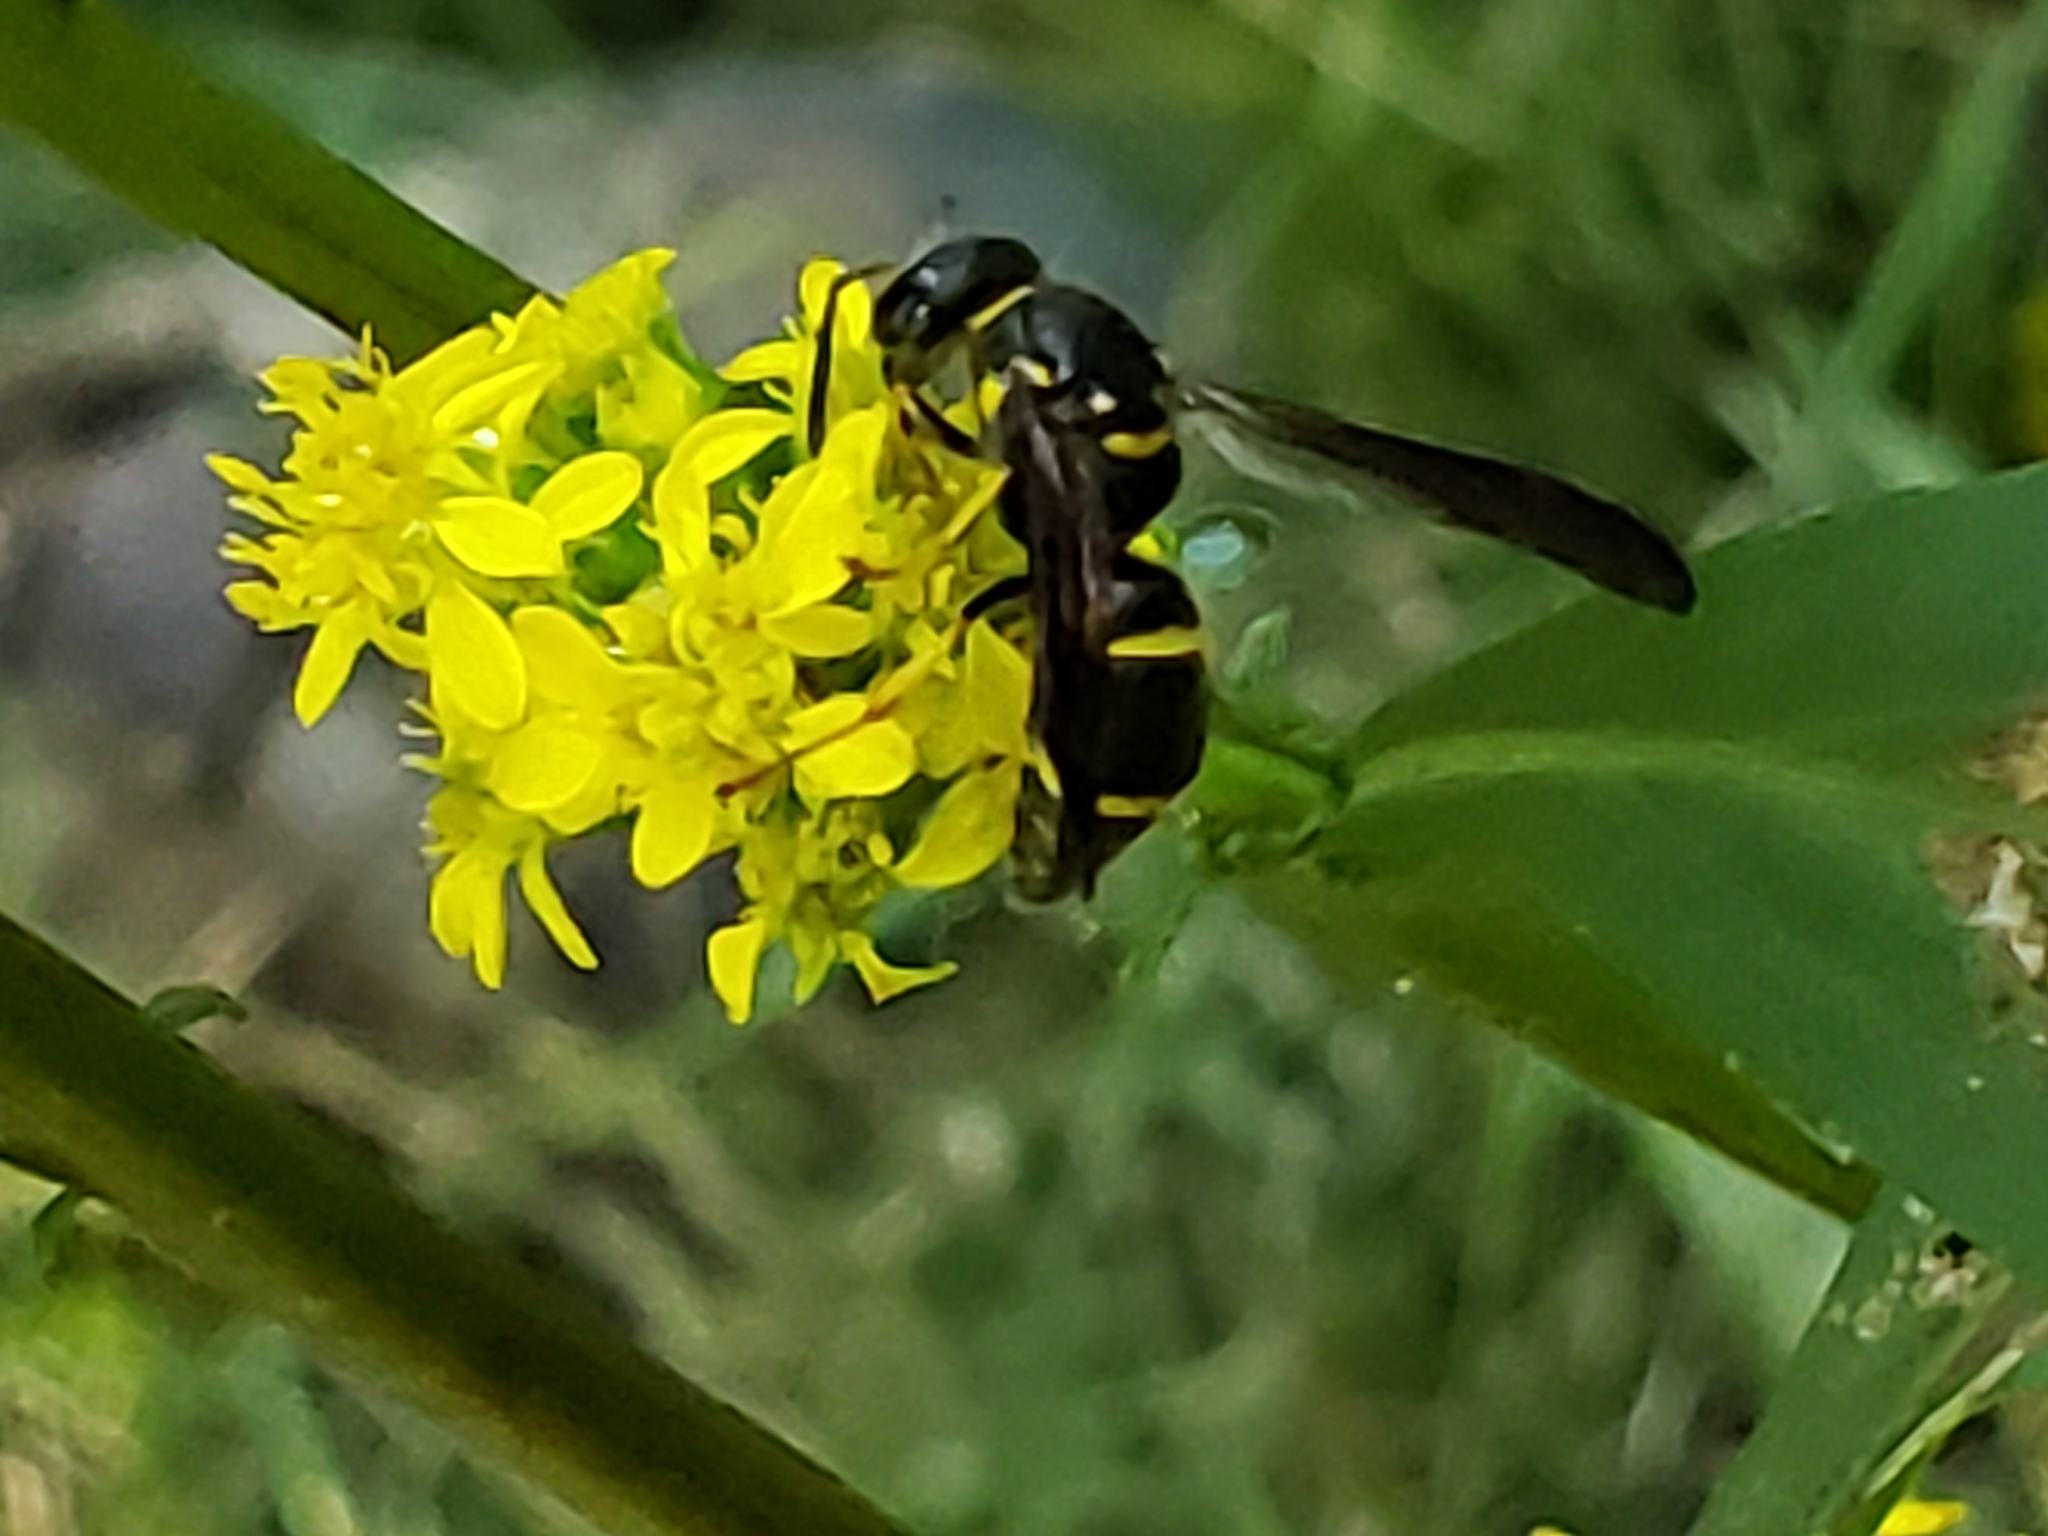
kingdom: Animalia
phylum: Arthropoda
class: Insecta
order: Hymenoptera
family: Vespidae
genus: Ancistrocerus
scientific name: Ancistrocerus campestris
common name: Smiling mason wasp
